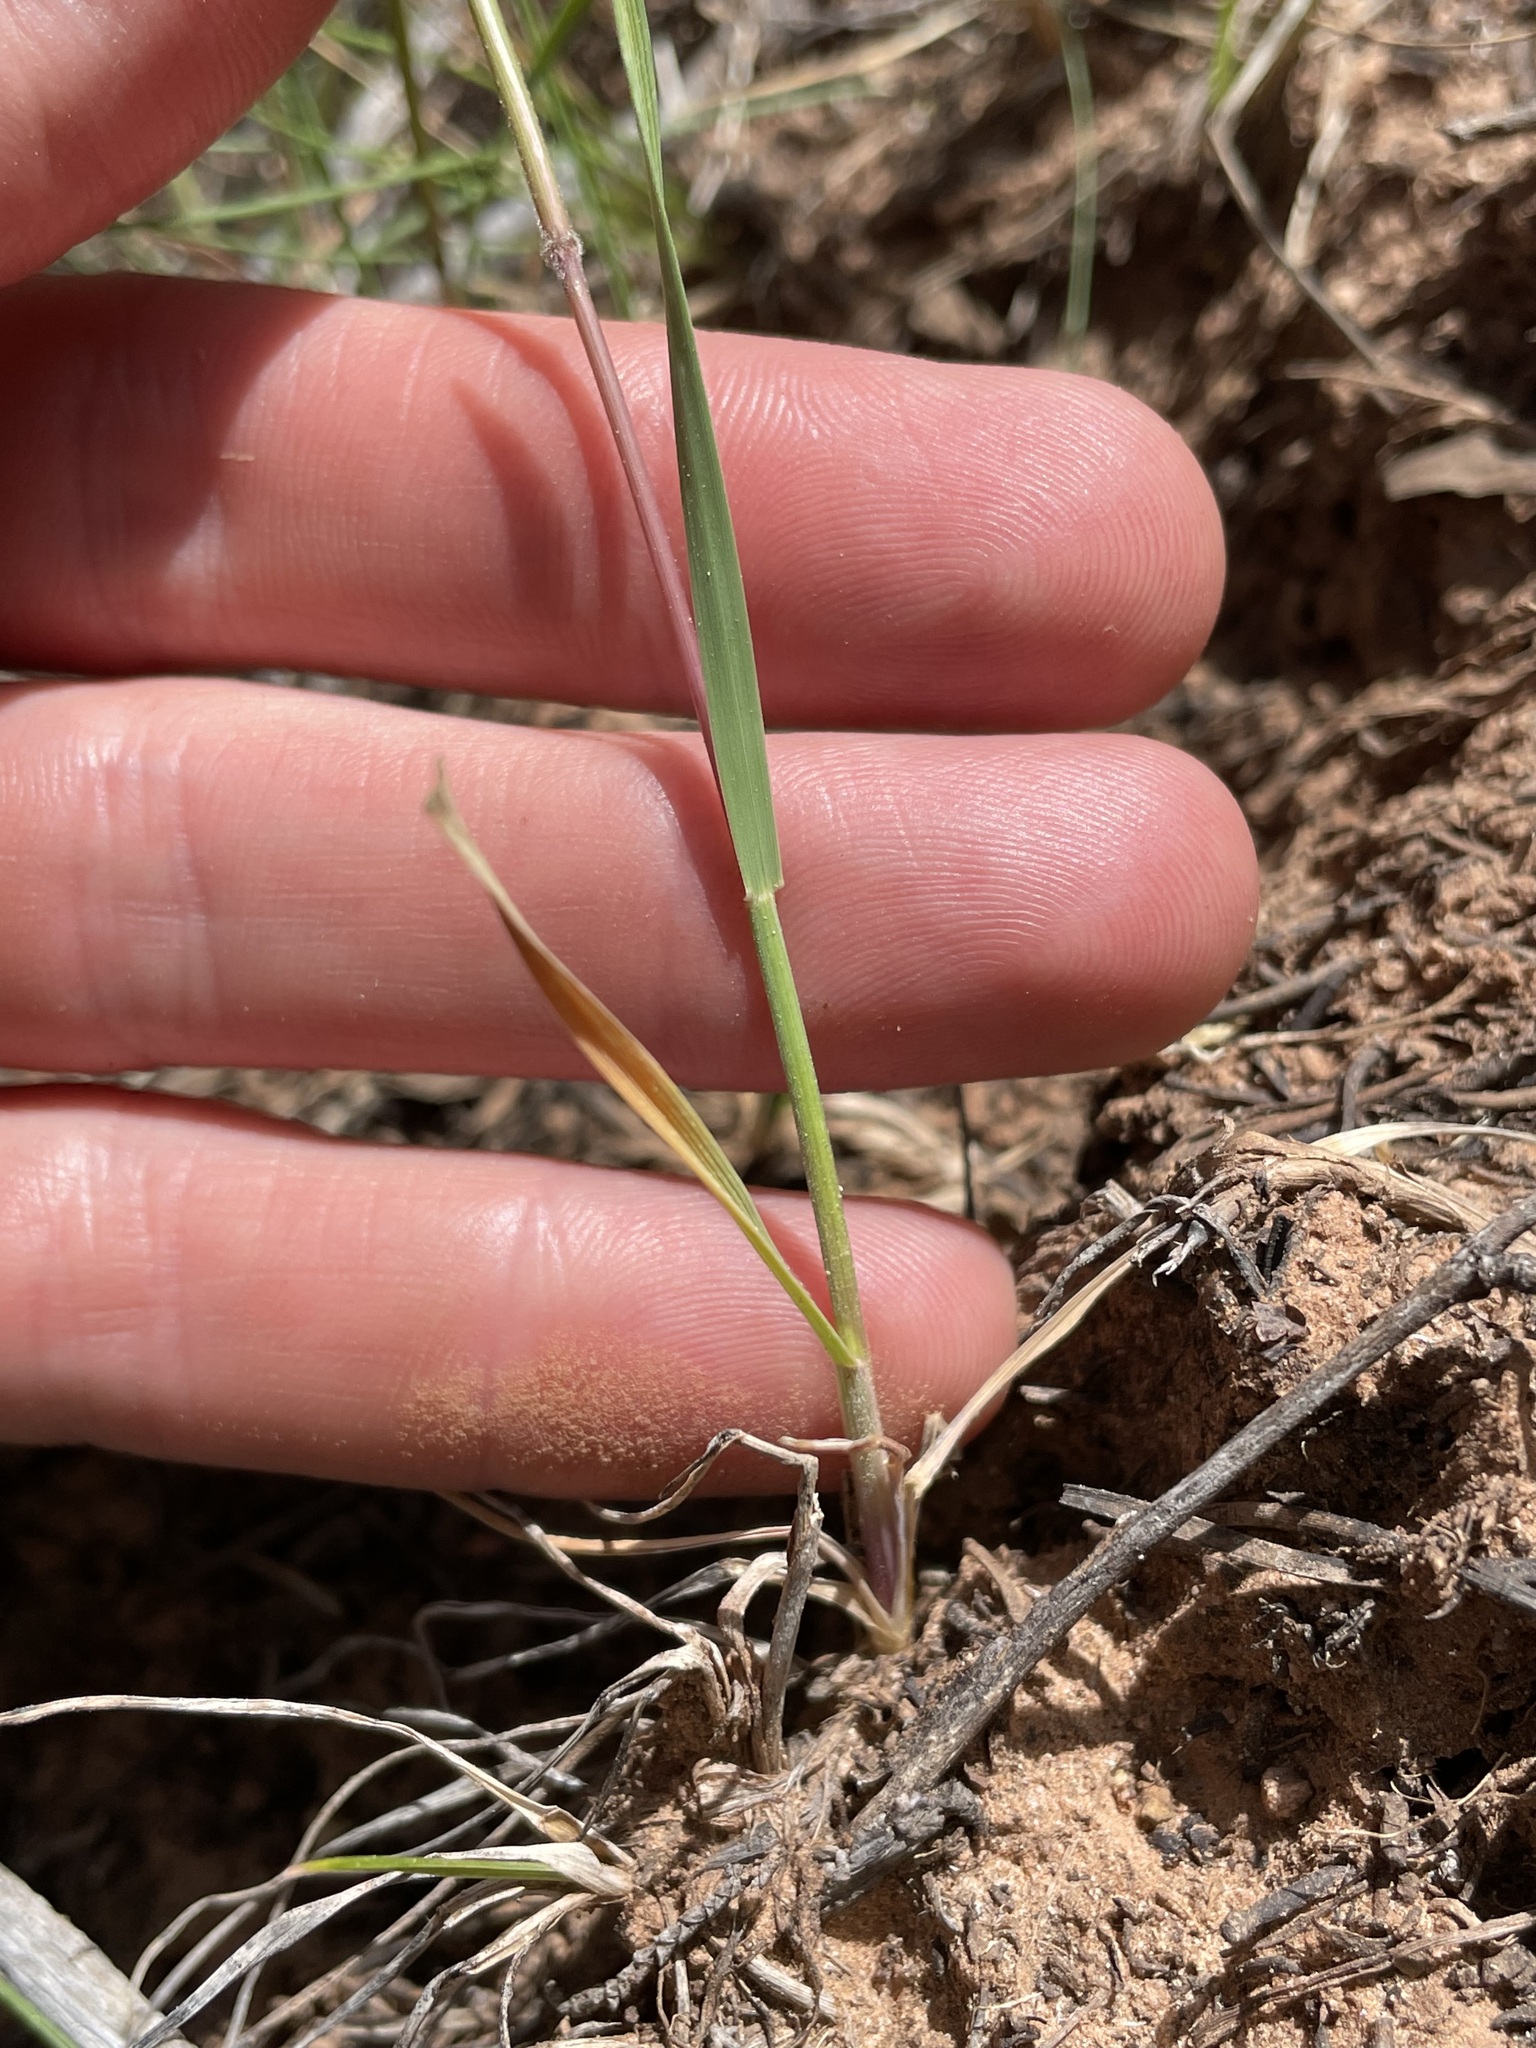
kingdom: Plantae
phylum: Tracheophyta
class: Liliopsida
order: Poales
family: Poaceae
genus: Koeleria
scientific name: Koeleria macrantha
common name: Crested hair-grass
